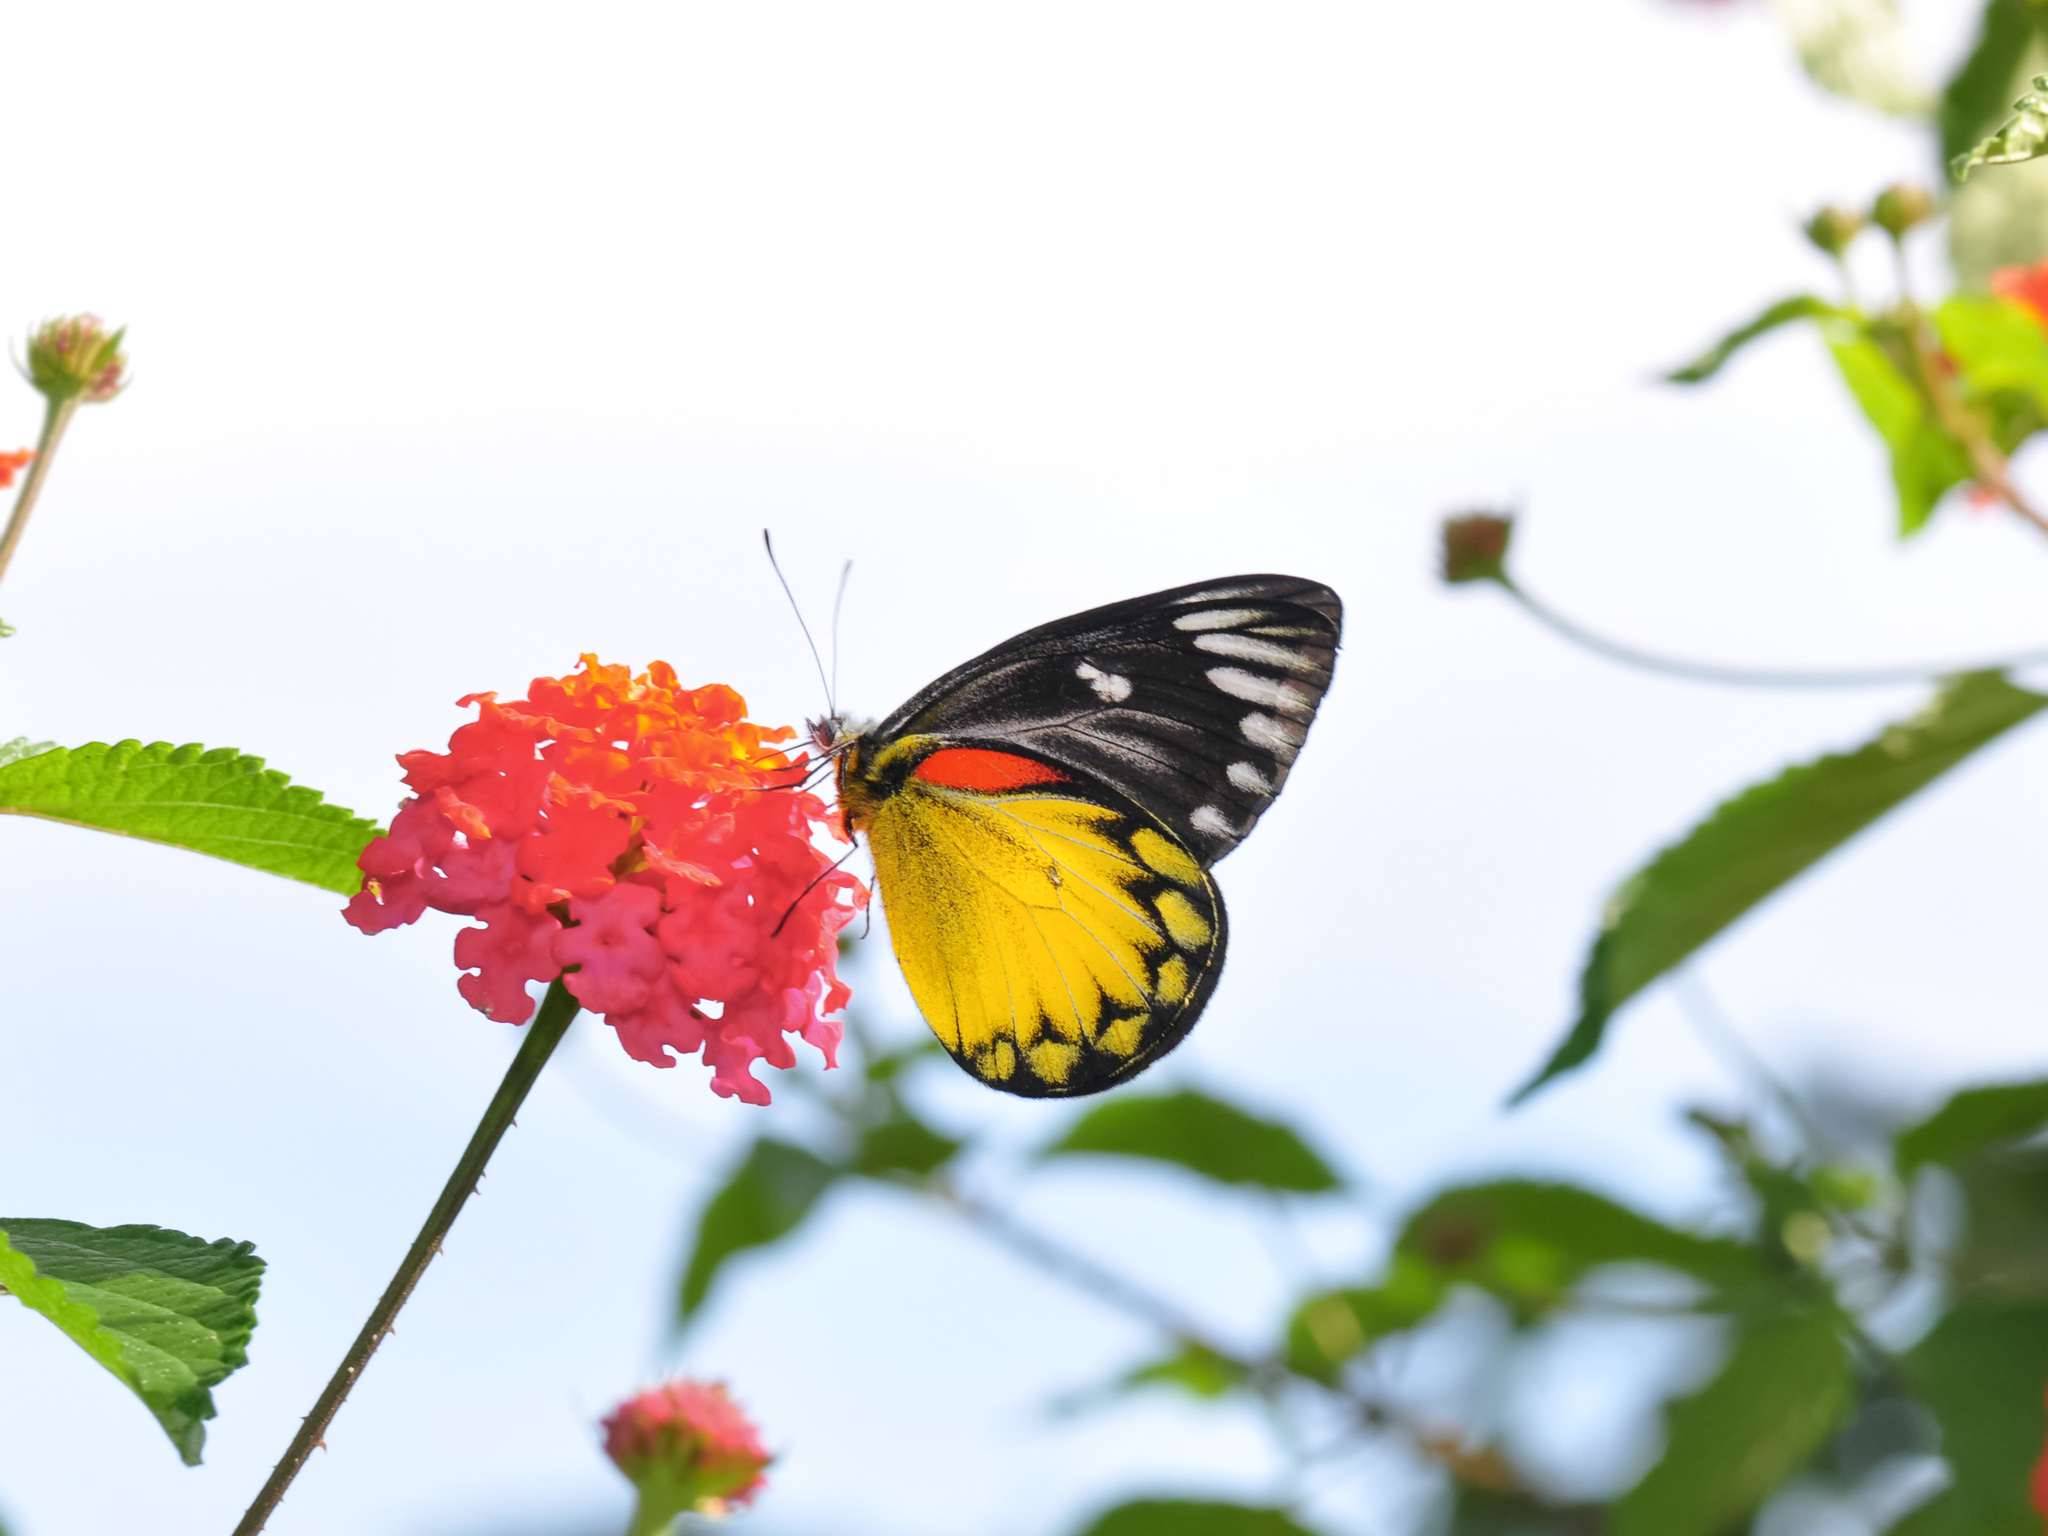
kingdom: Animalia
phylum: Arthropoda
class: Insecta
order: Lepidoptera
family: Pieridae
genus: Delias
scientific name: Delias descombesi
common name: Red-spot jezebel
